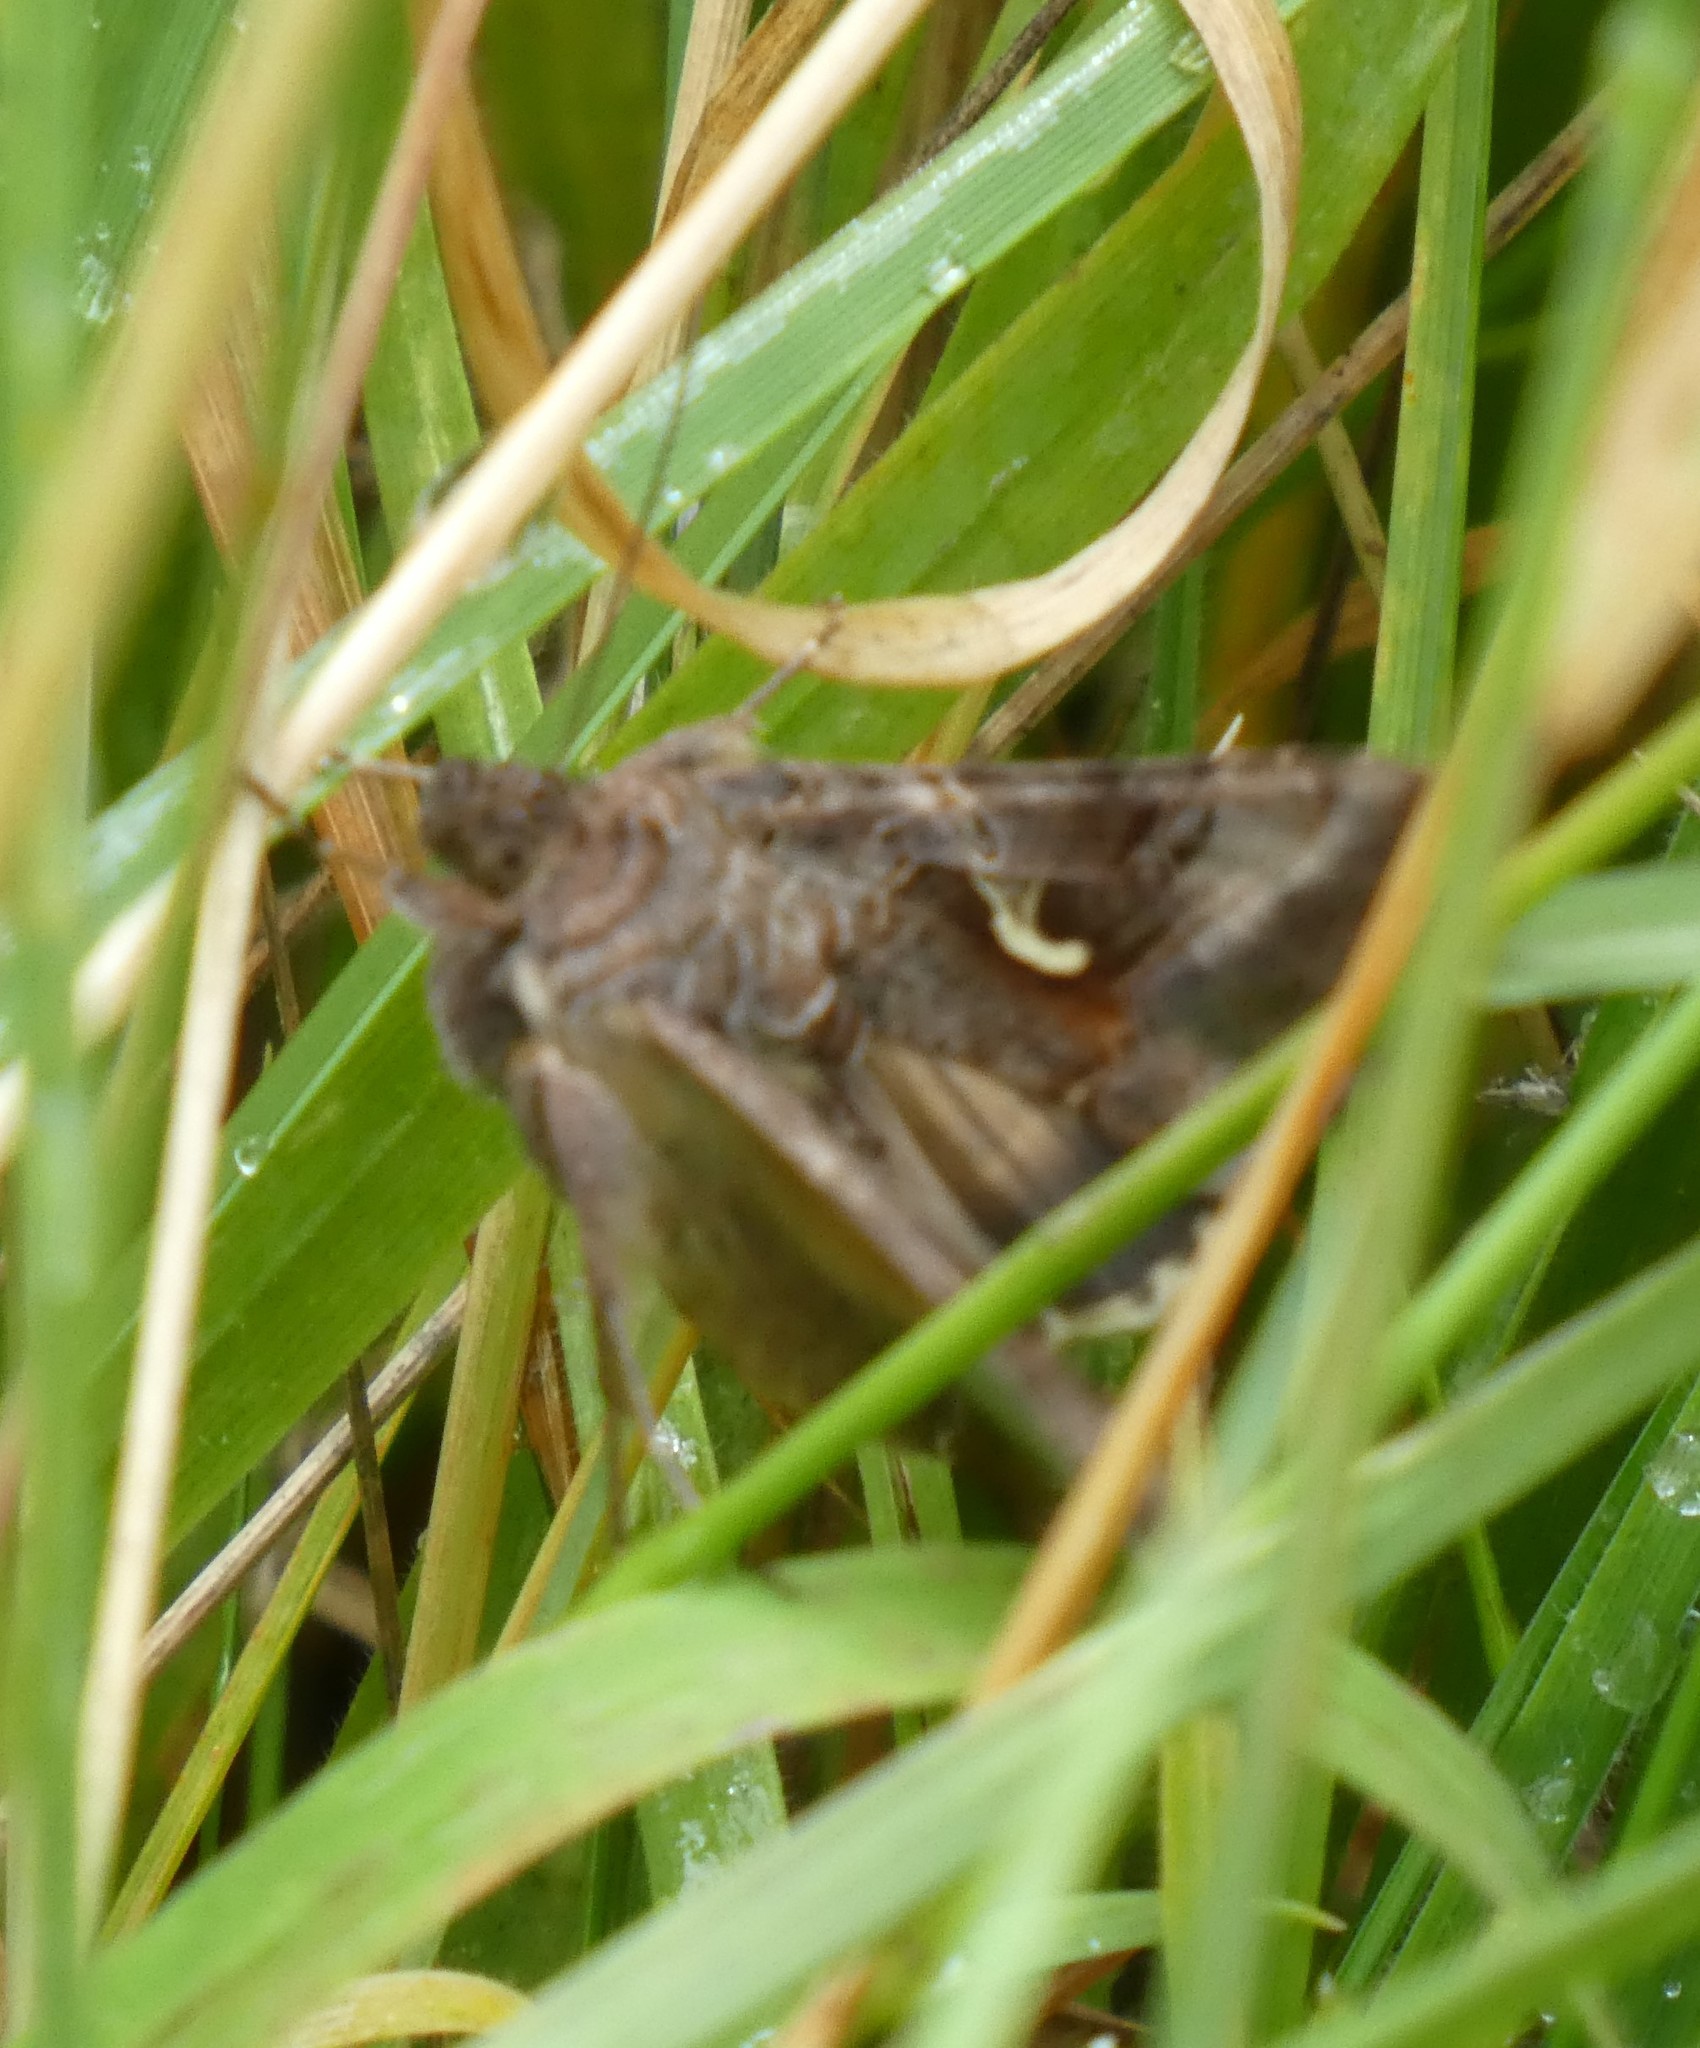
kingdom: Animalia
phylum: Arthropoda
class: Insecta
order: Lepidoptera
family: Noctuidae
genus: Autographa
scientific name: Autographa gamma
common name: Silver y
